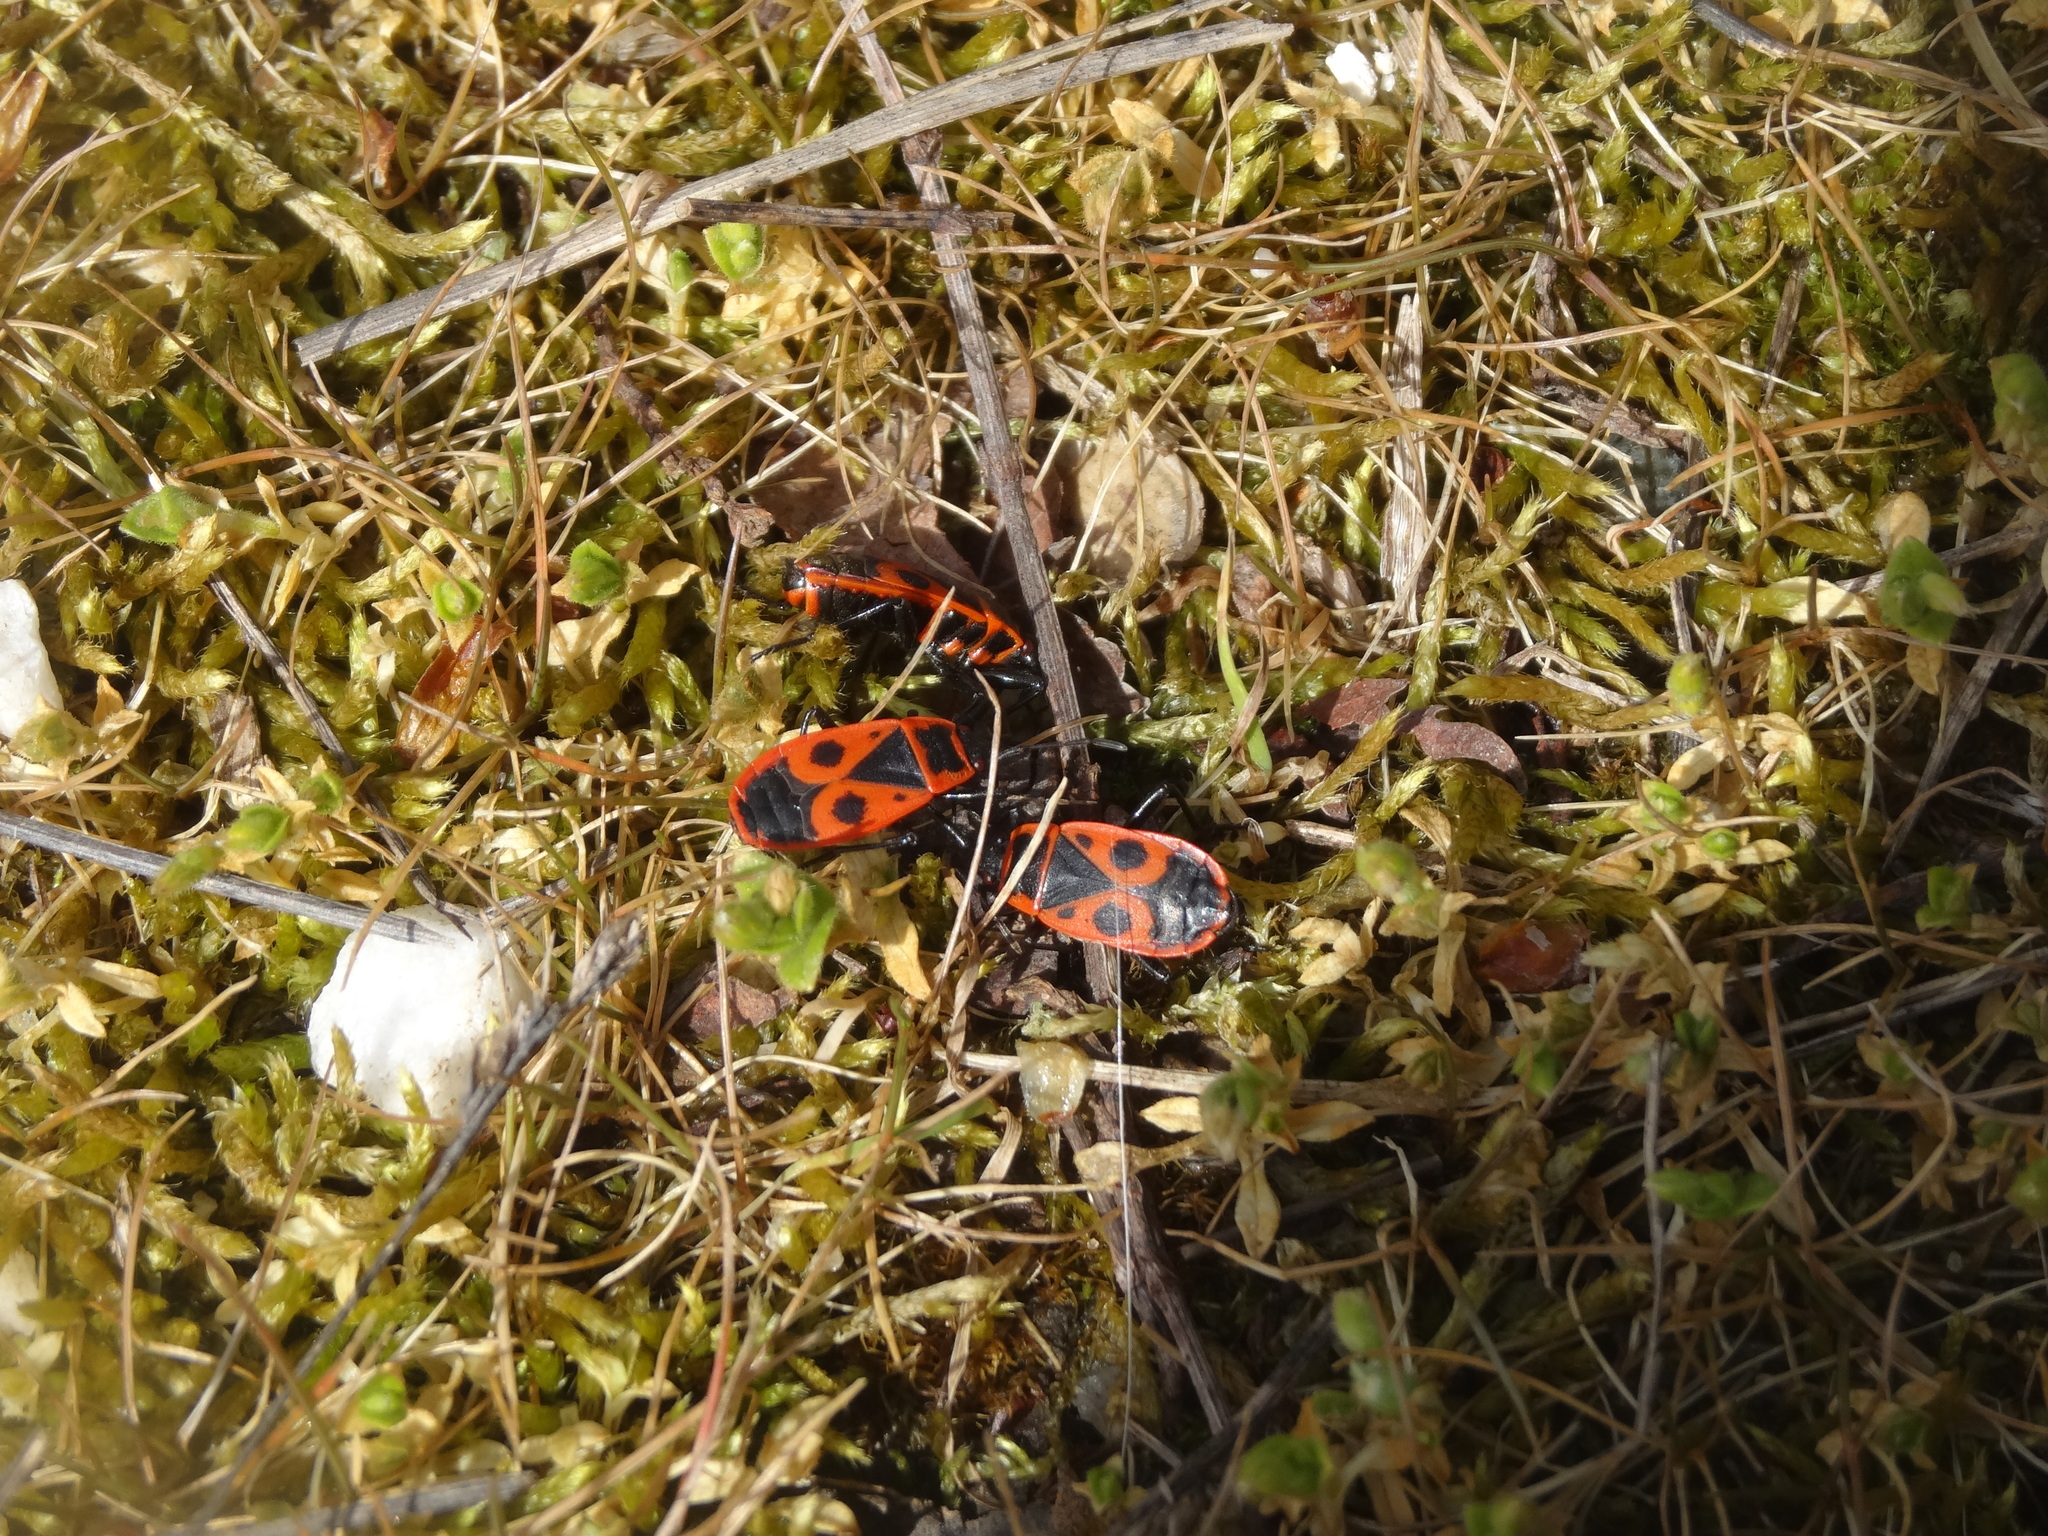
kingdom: Animalia
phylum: Arthropoda
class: Insecta
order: Hemiptera
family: Pyrrhocoridae
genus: Pyrrhocoris
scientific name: Pyrrhocoris apterus
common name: Firebug
